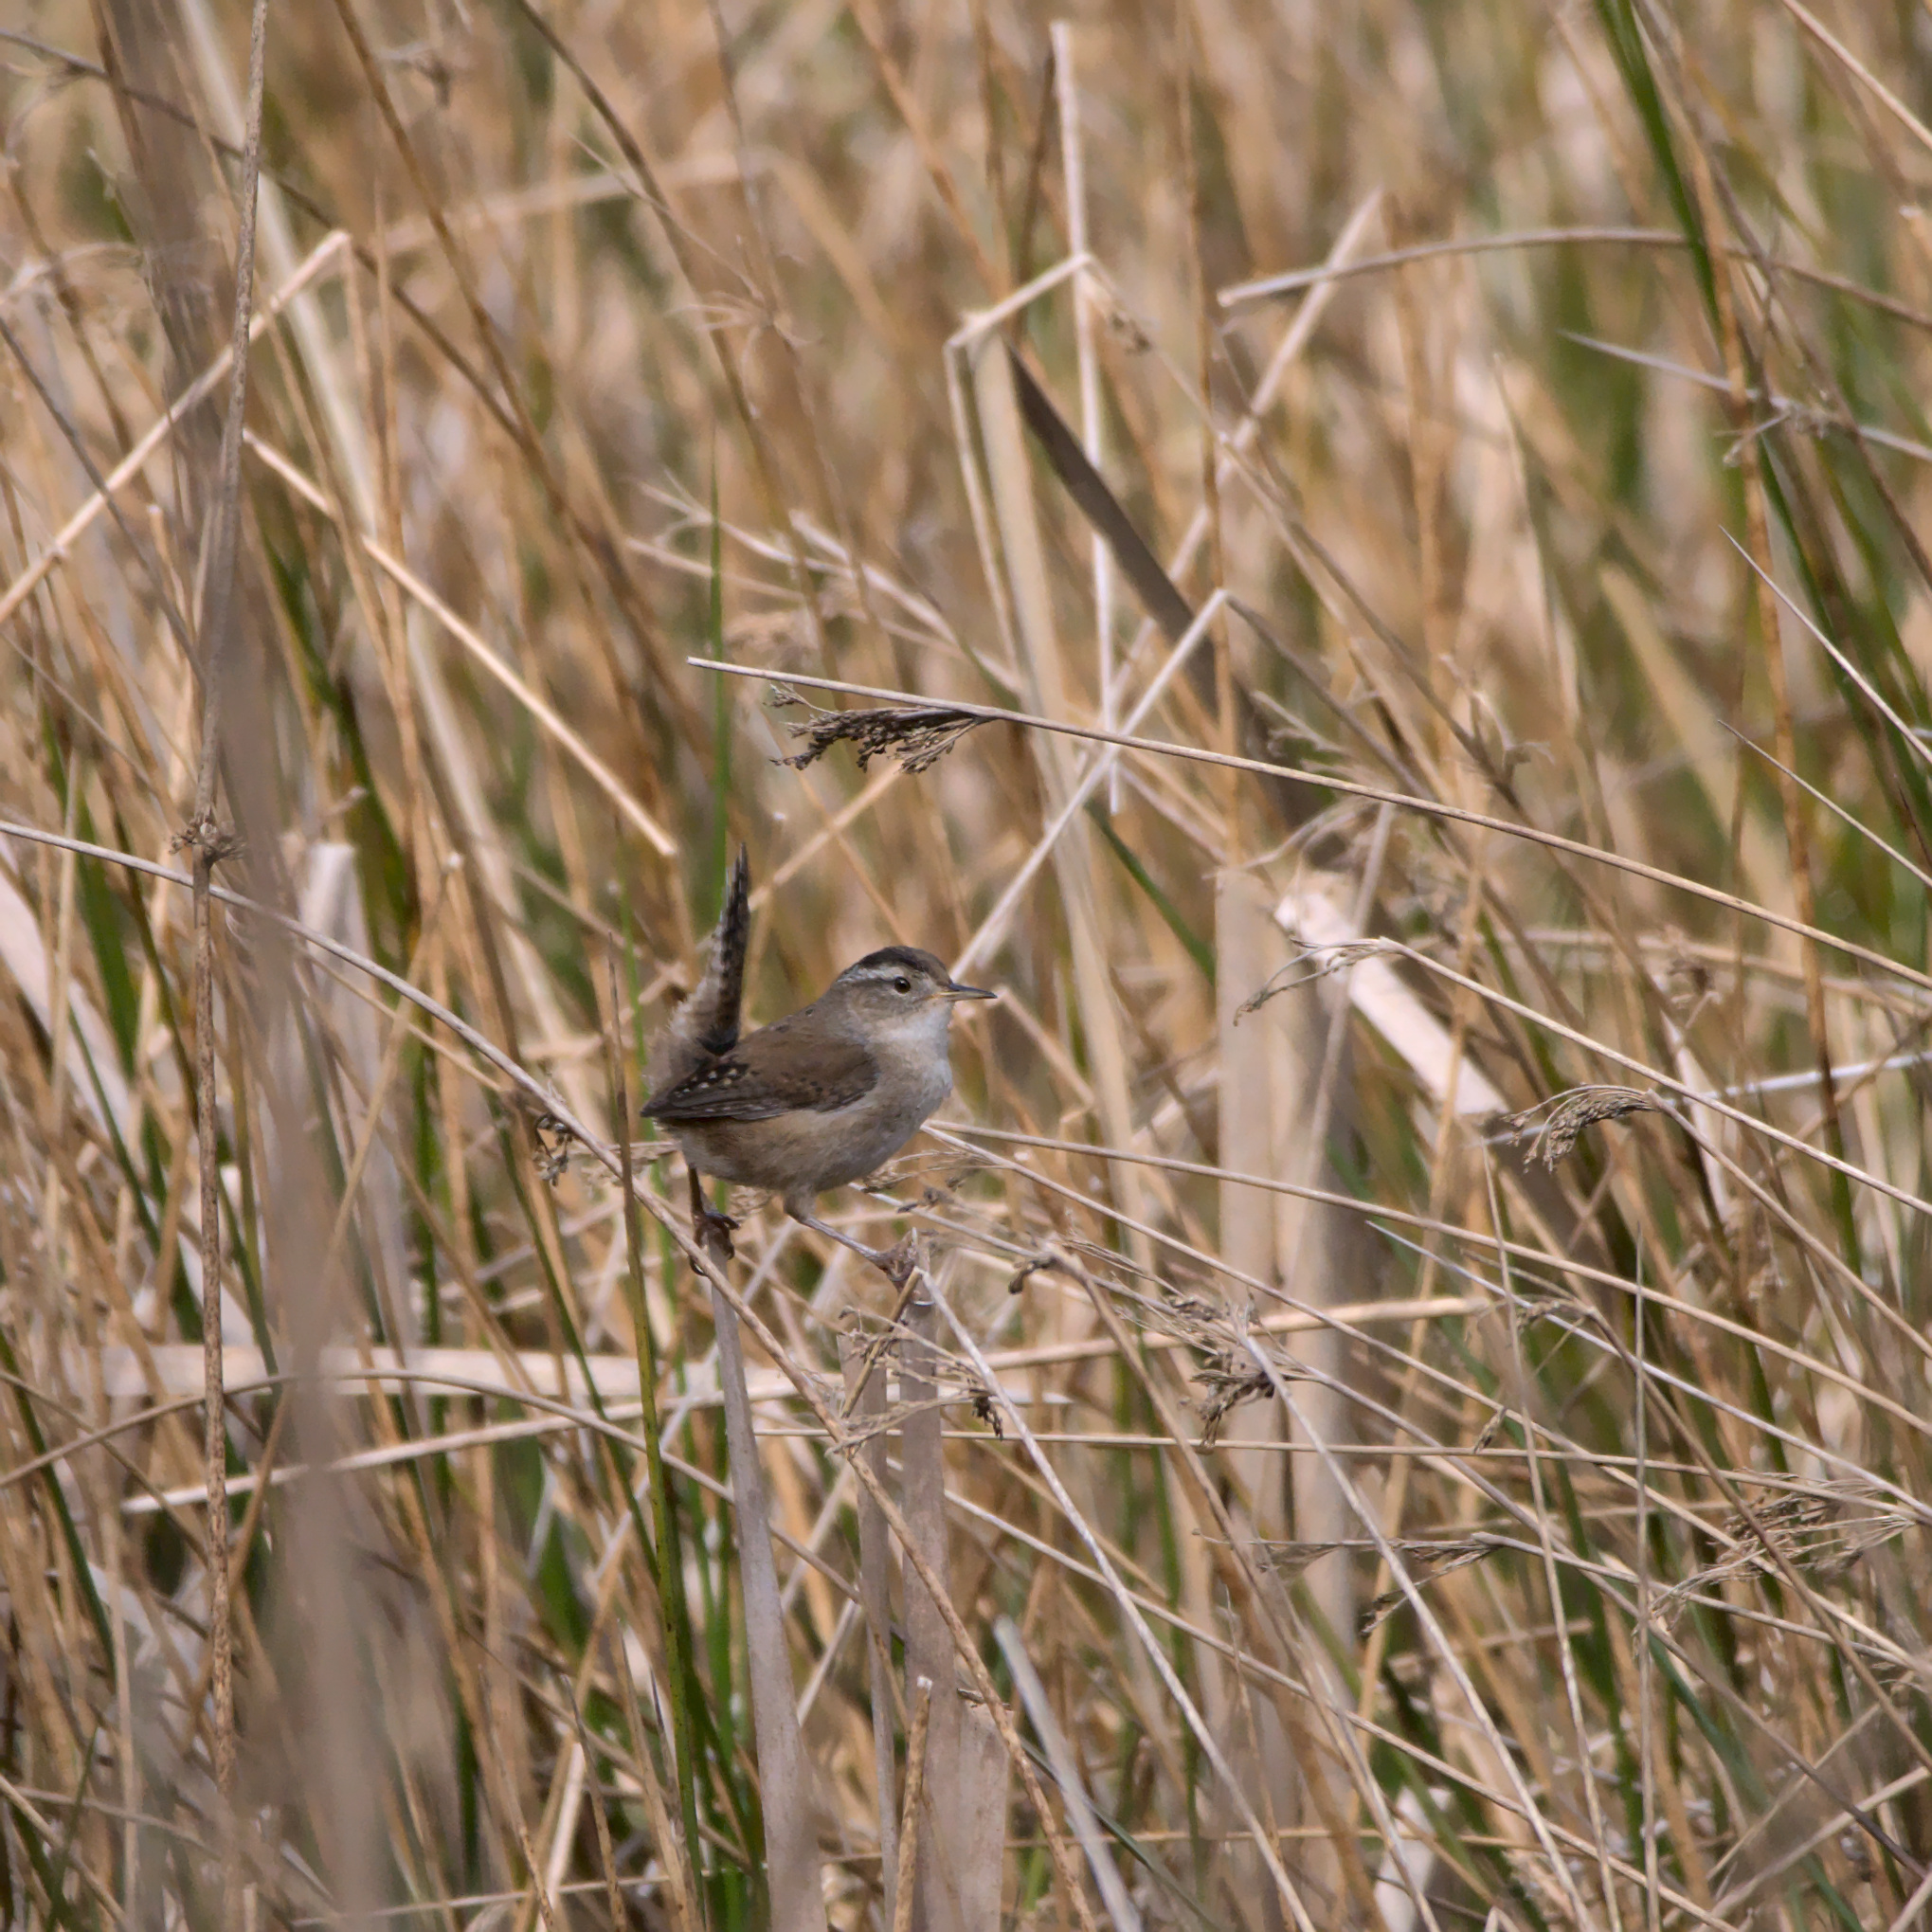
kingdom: Animalia
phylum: Chordata
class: Aves
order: Passeriformes
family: Troglodytidae
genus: Cistothorus
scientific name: Cistothorus palustris
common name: Marsh wren
